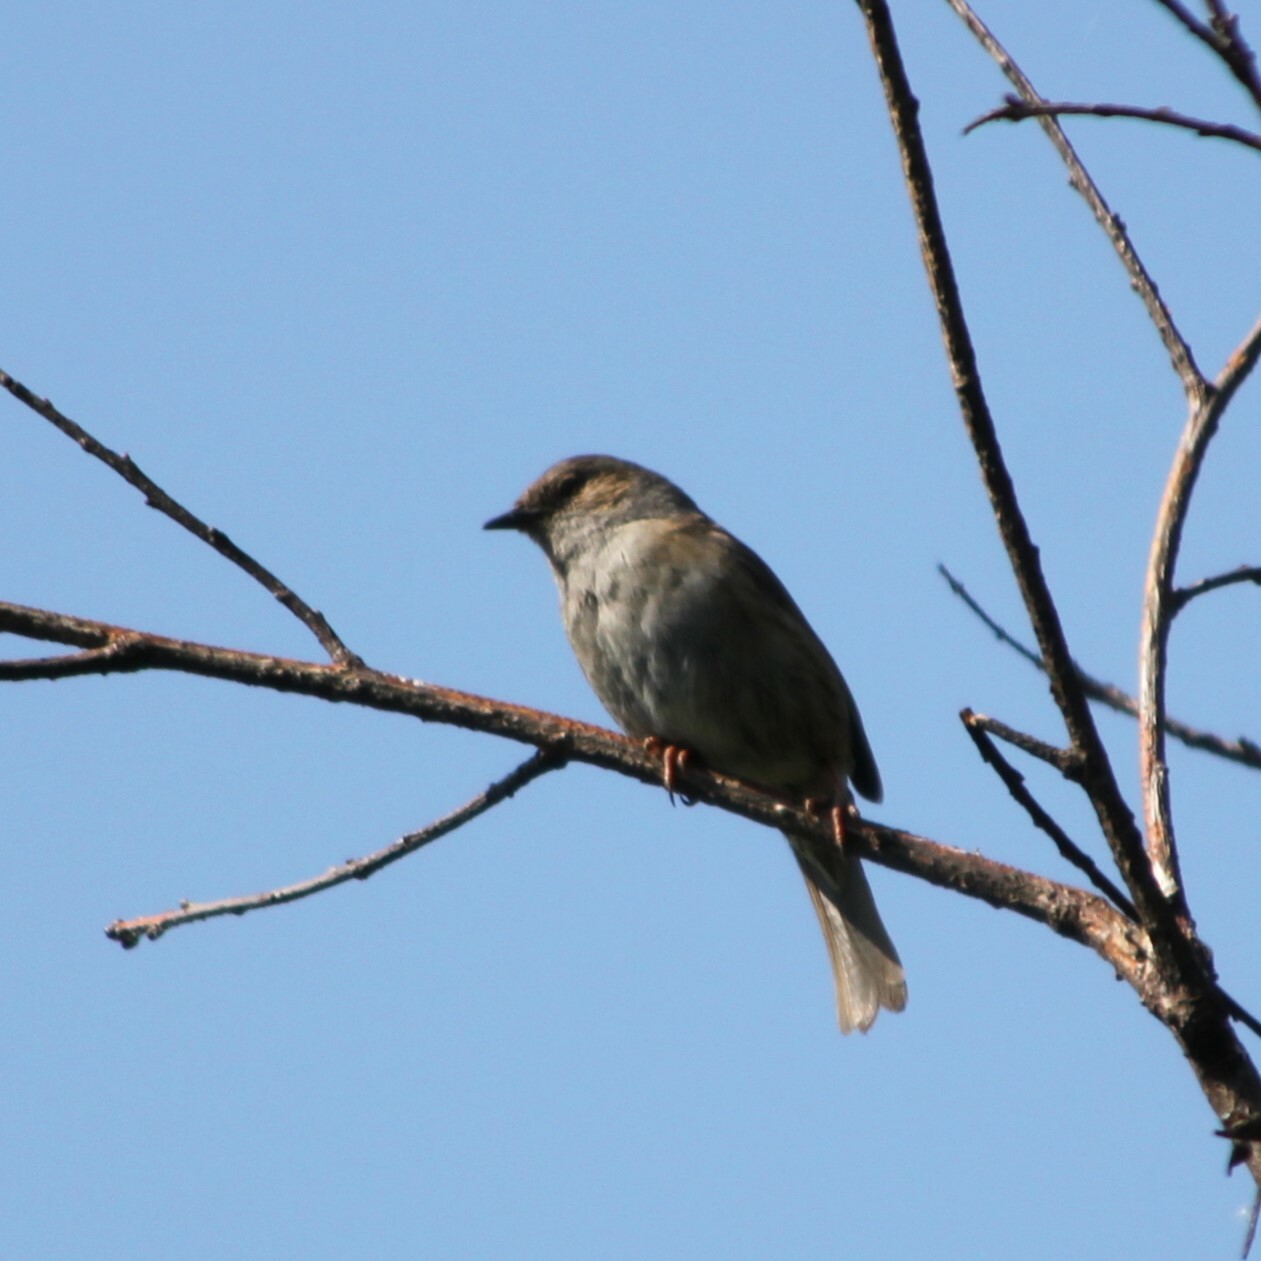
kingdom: Animalia
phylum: Chordata
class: Aves
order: Passeriformes
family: Prunellidae
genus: Prunella
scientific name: Prunella modularis
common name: Dunnock
